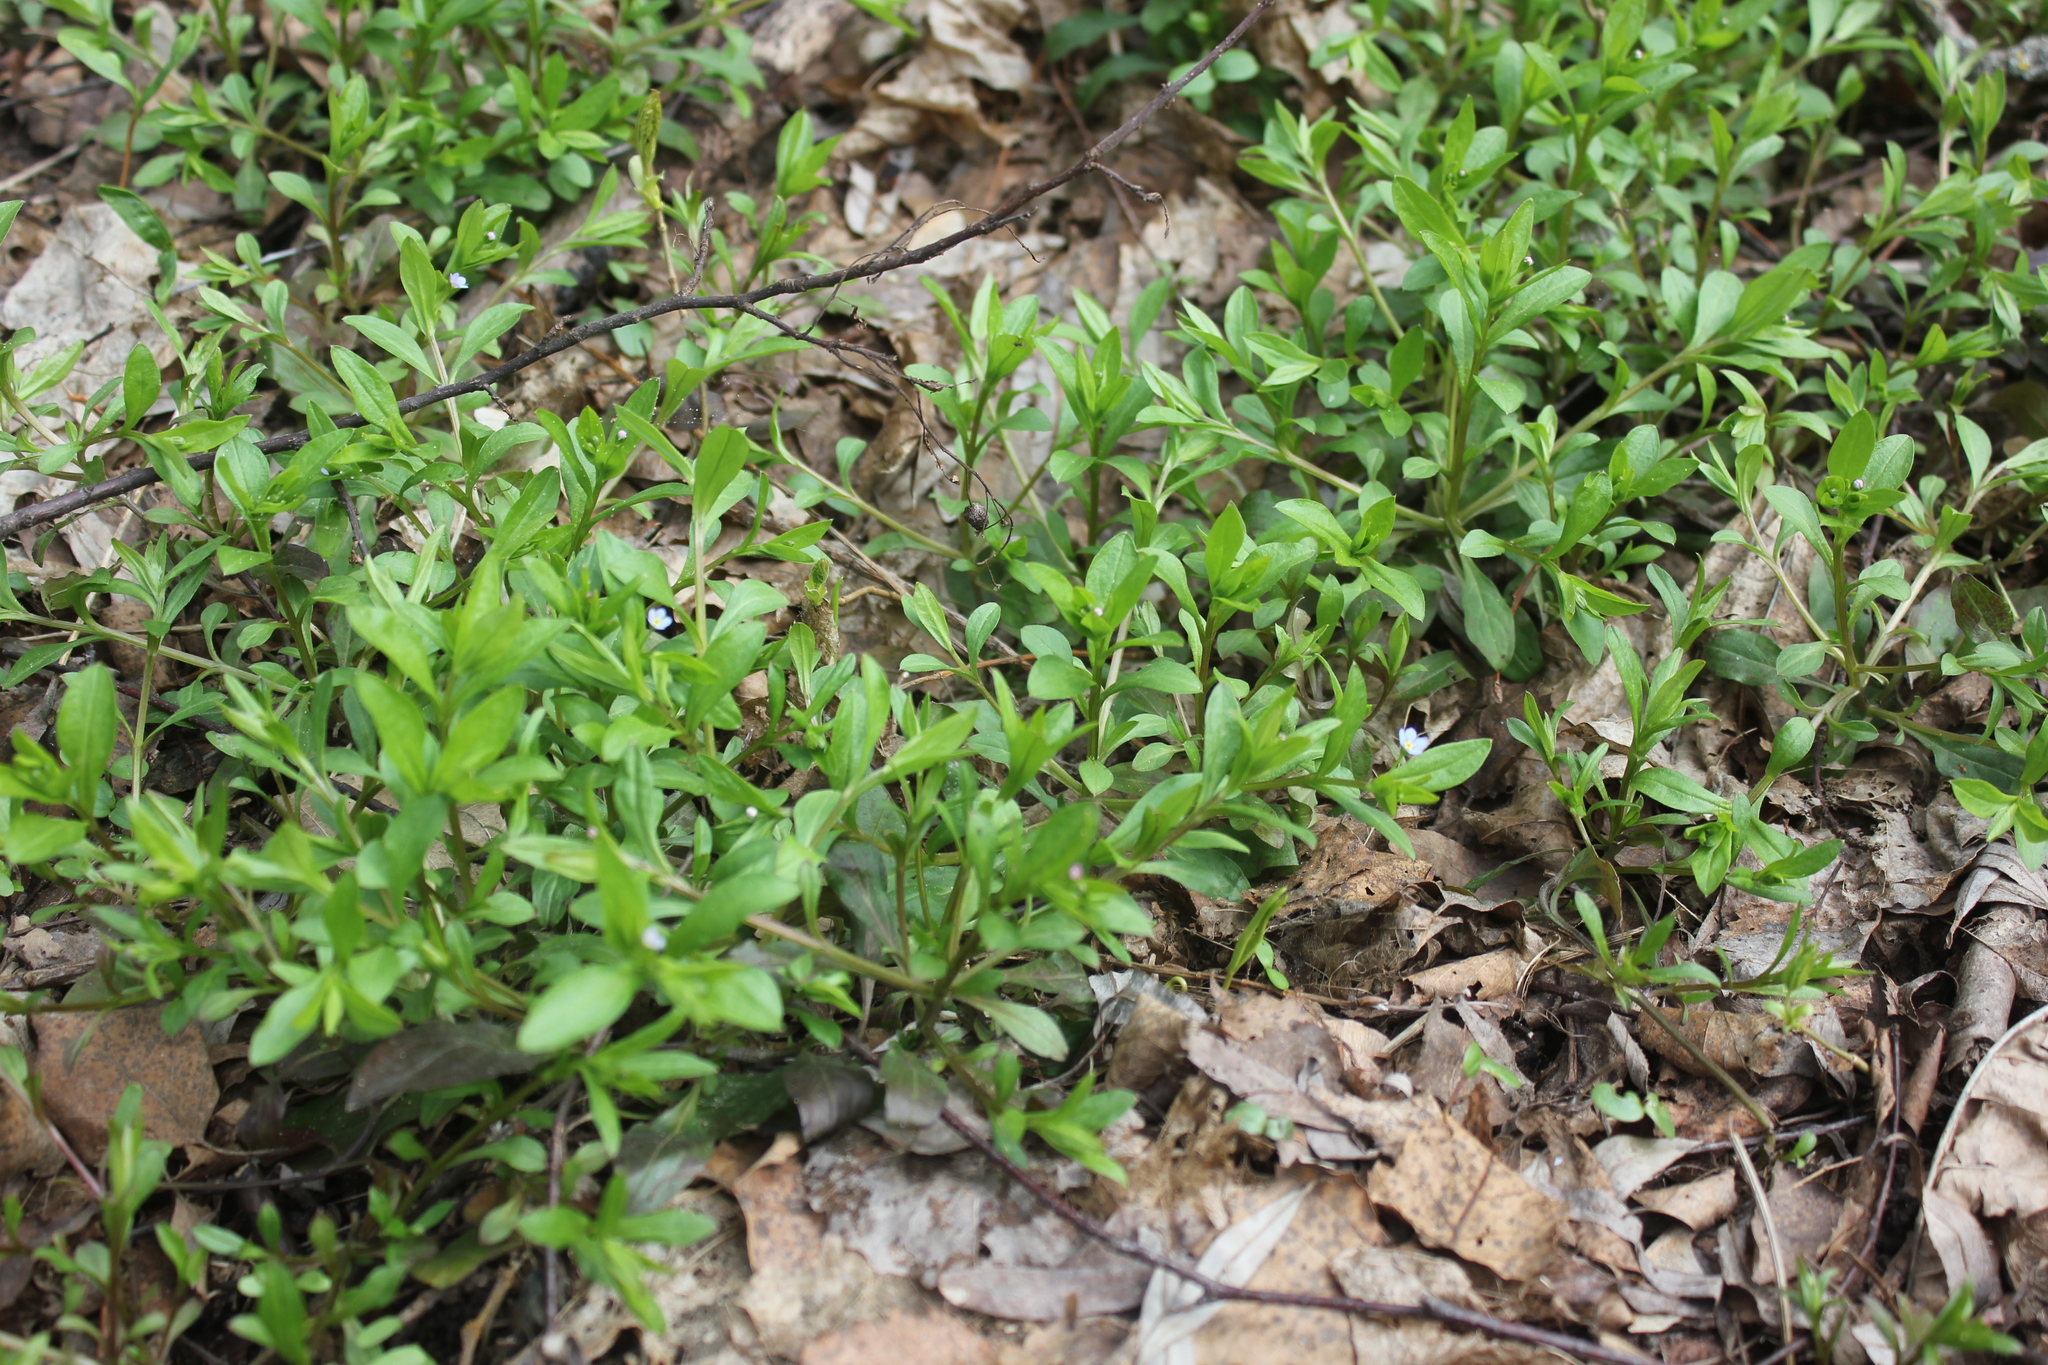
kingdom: Plantae
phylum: Tracheophyta
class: Magnoliopsida
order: Boraginales
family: Boraginaceae
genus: Memoremea
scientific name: Memoremea scorpioides
